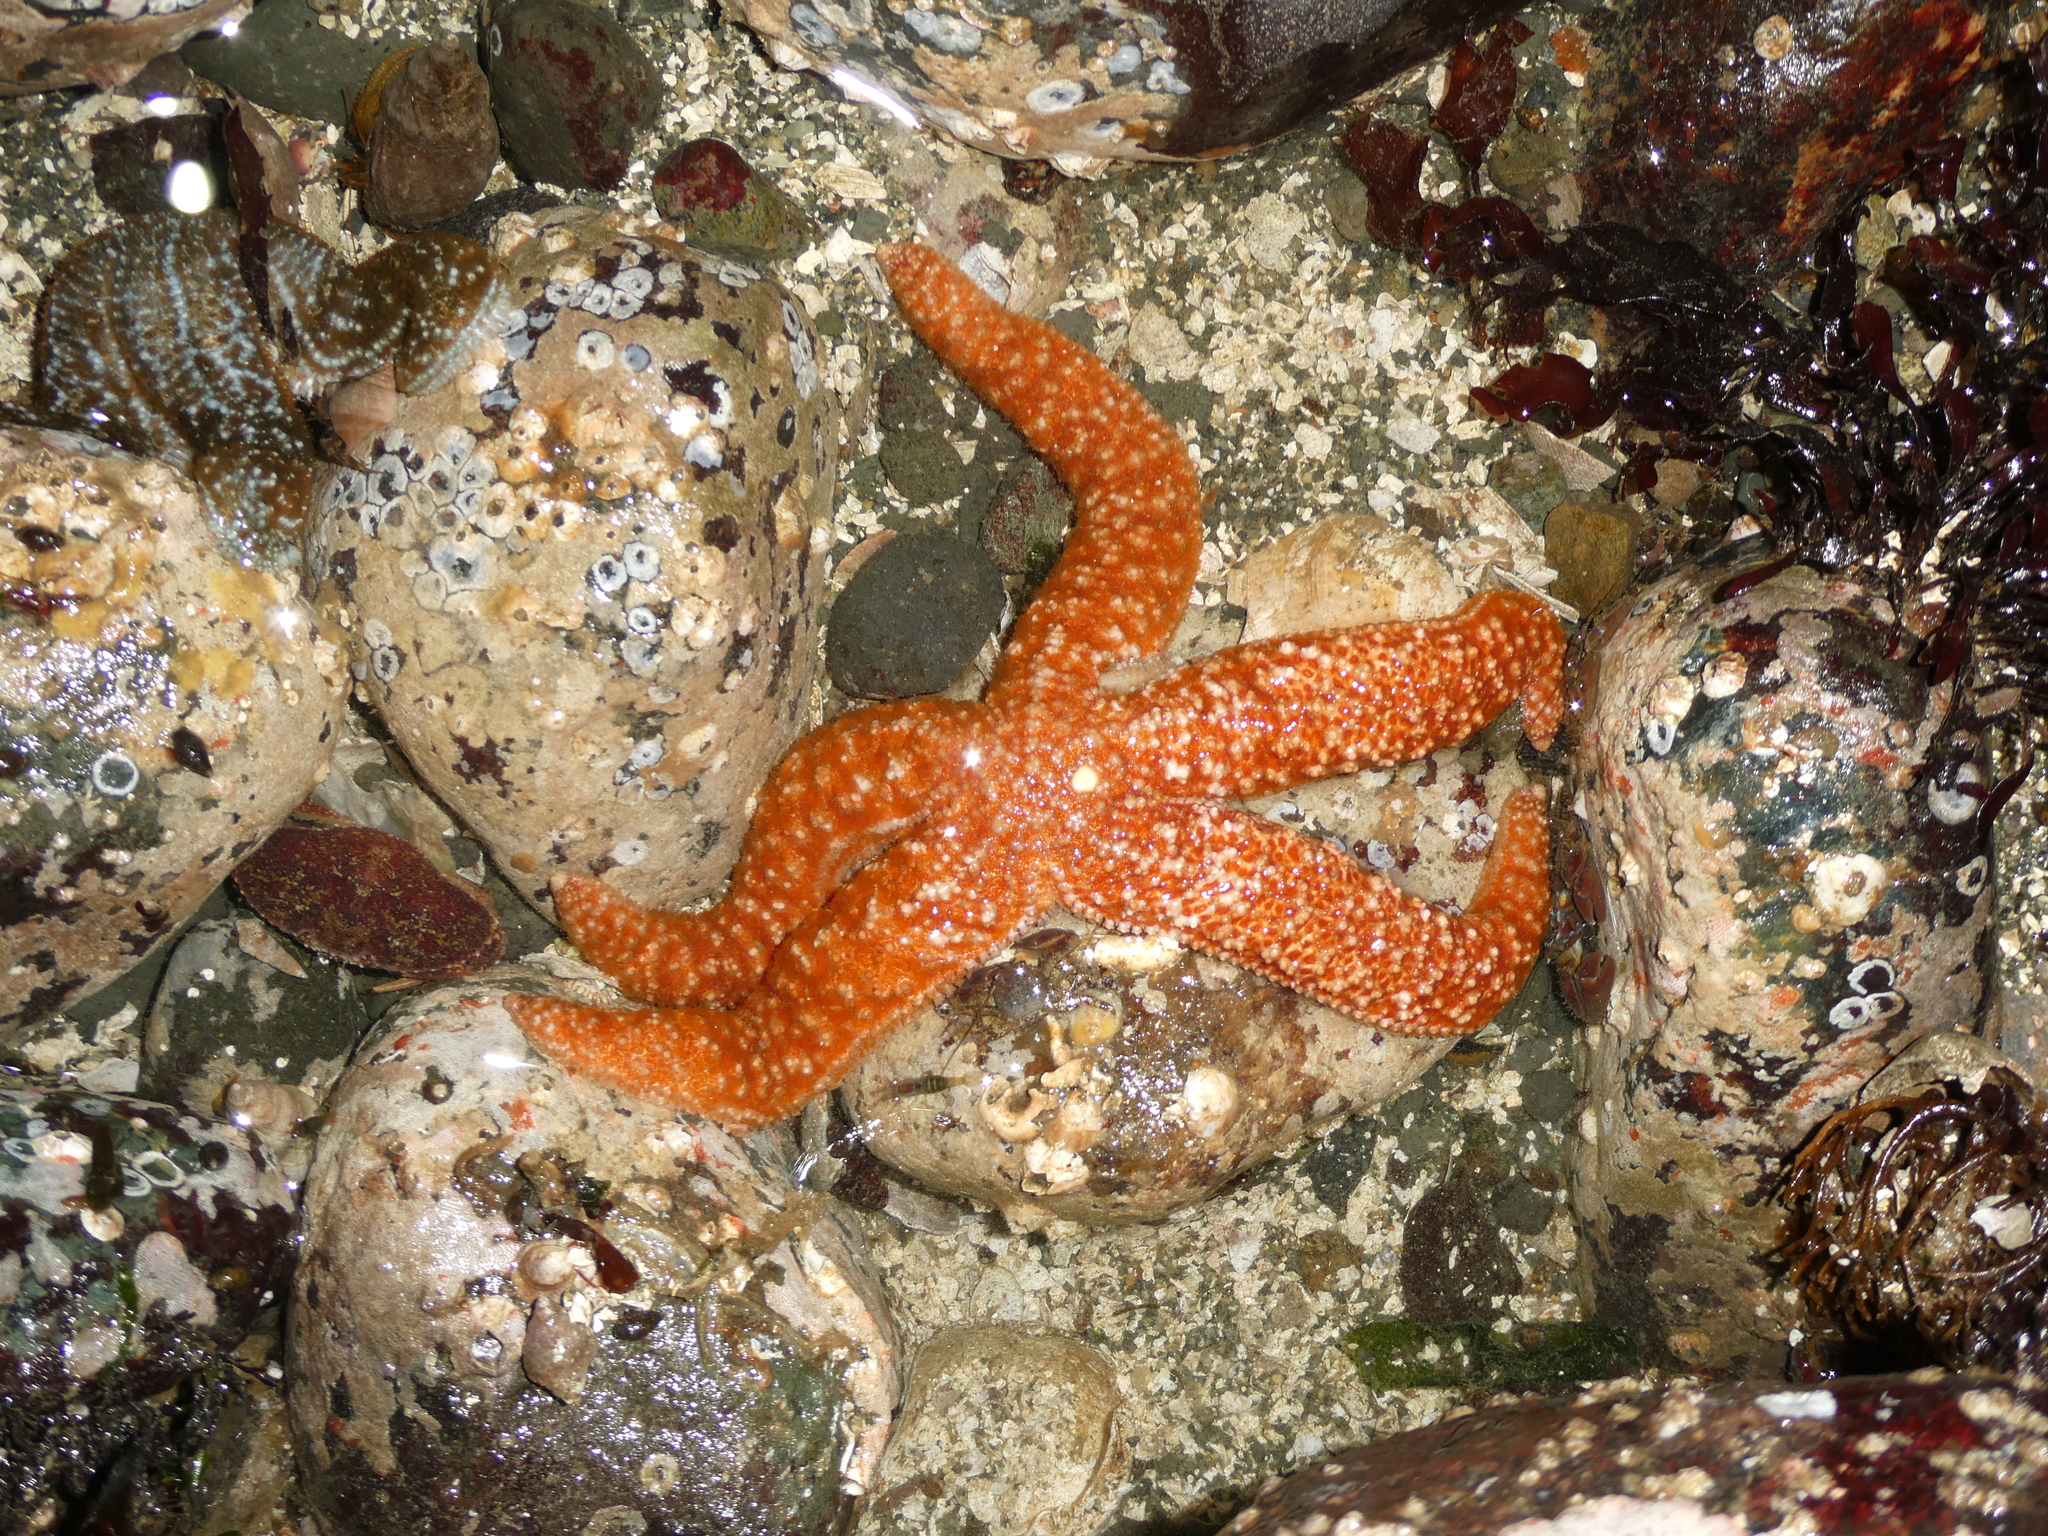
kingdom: Animalia
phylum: Echinodermata
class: Asteroidea
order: Forcipulatida
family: Asteriidae
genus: Evasterias
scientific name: Evasterias troschelii
